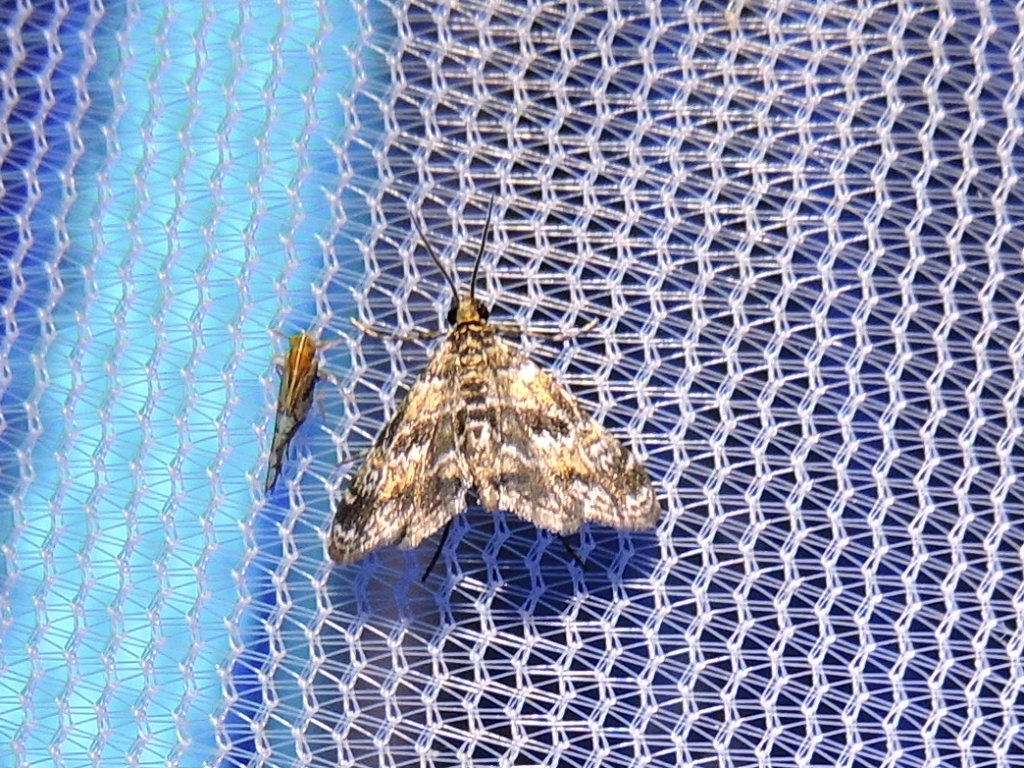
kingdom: Animalia
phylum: Arthropoda
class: Insecta
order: Lepidoptera
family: Crambidae
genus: Elophila
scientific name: Elophila obliteralis
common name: Waterlily leafcutter moth
